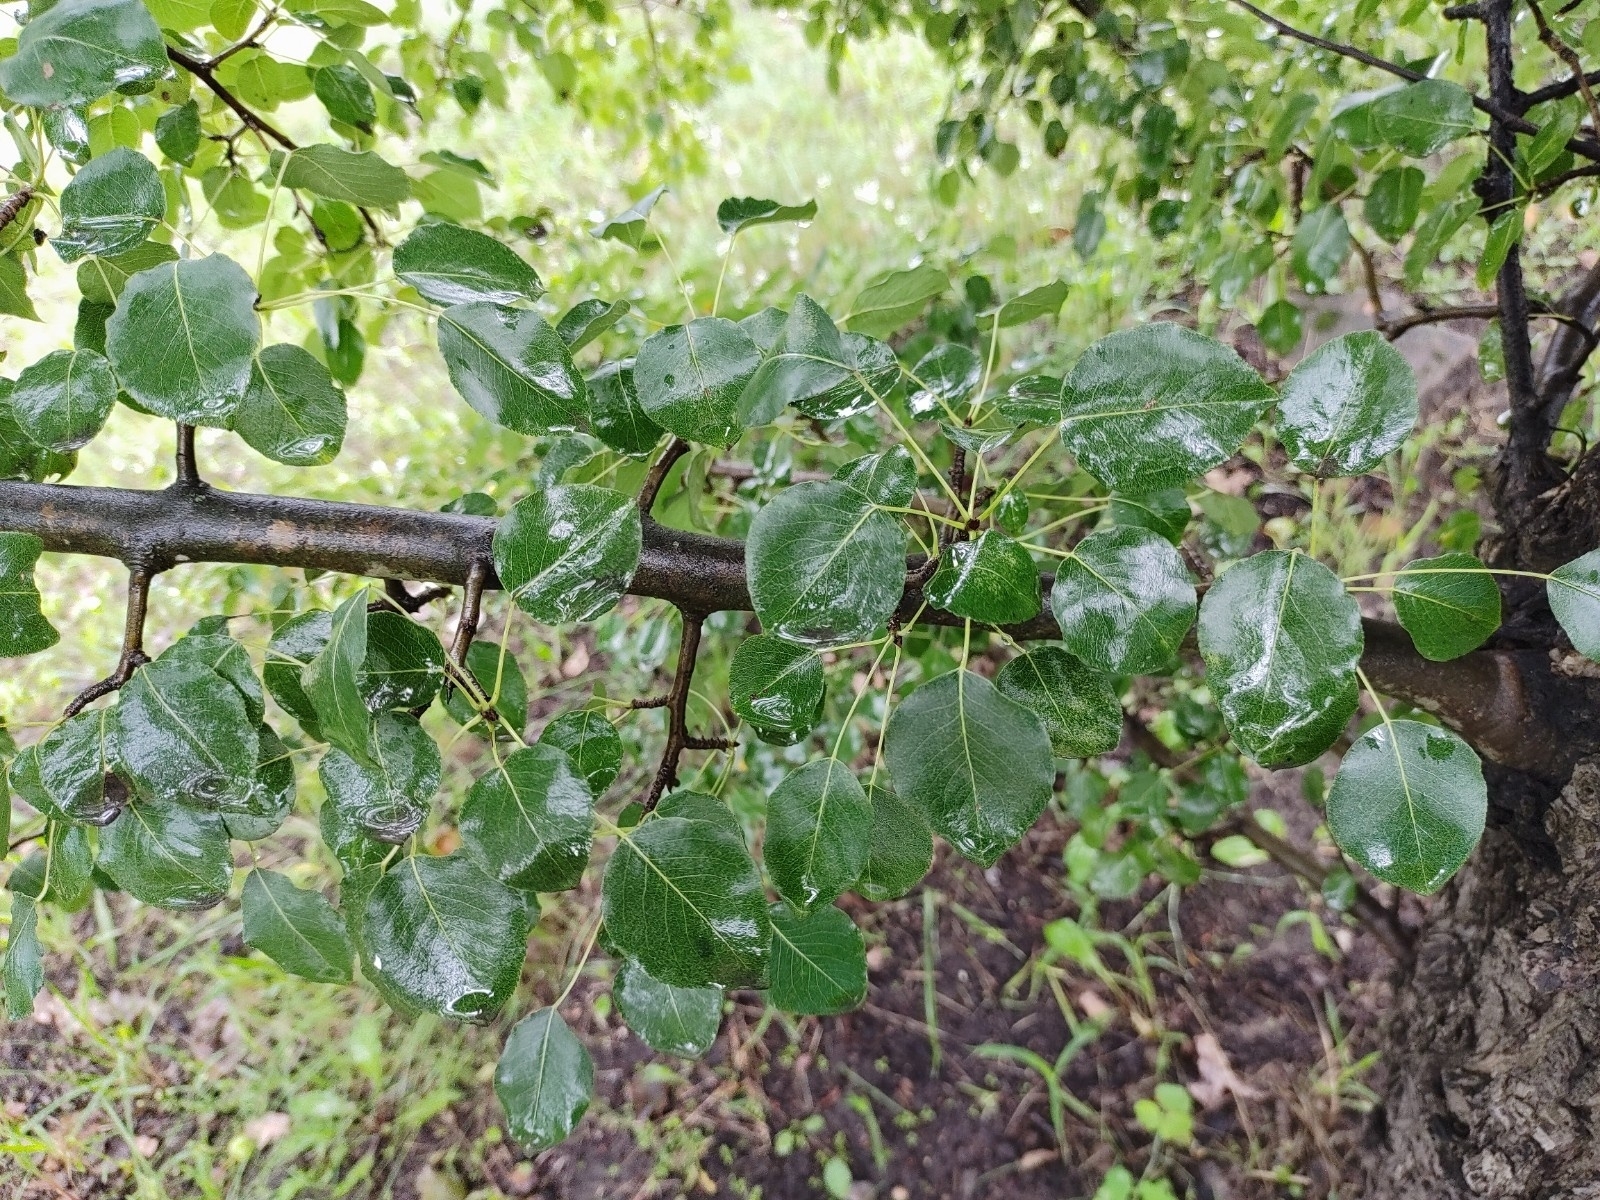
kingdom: Plantae
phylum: Tracheophyta
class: Magnoliopsida
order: Rosales
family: Rosaceae
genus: Pyrus
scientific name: Pyrus communis
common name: Pear
